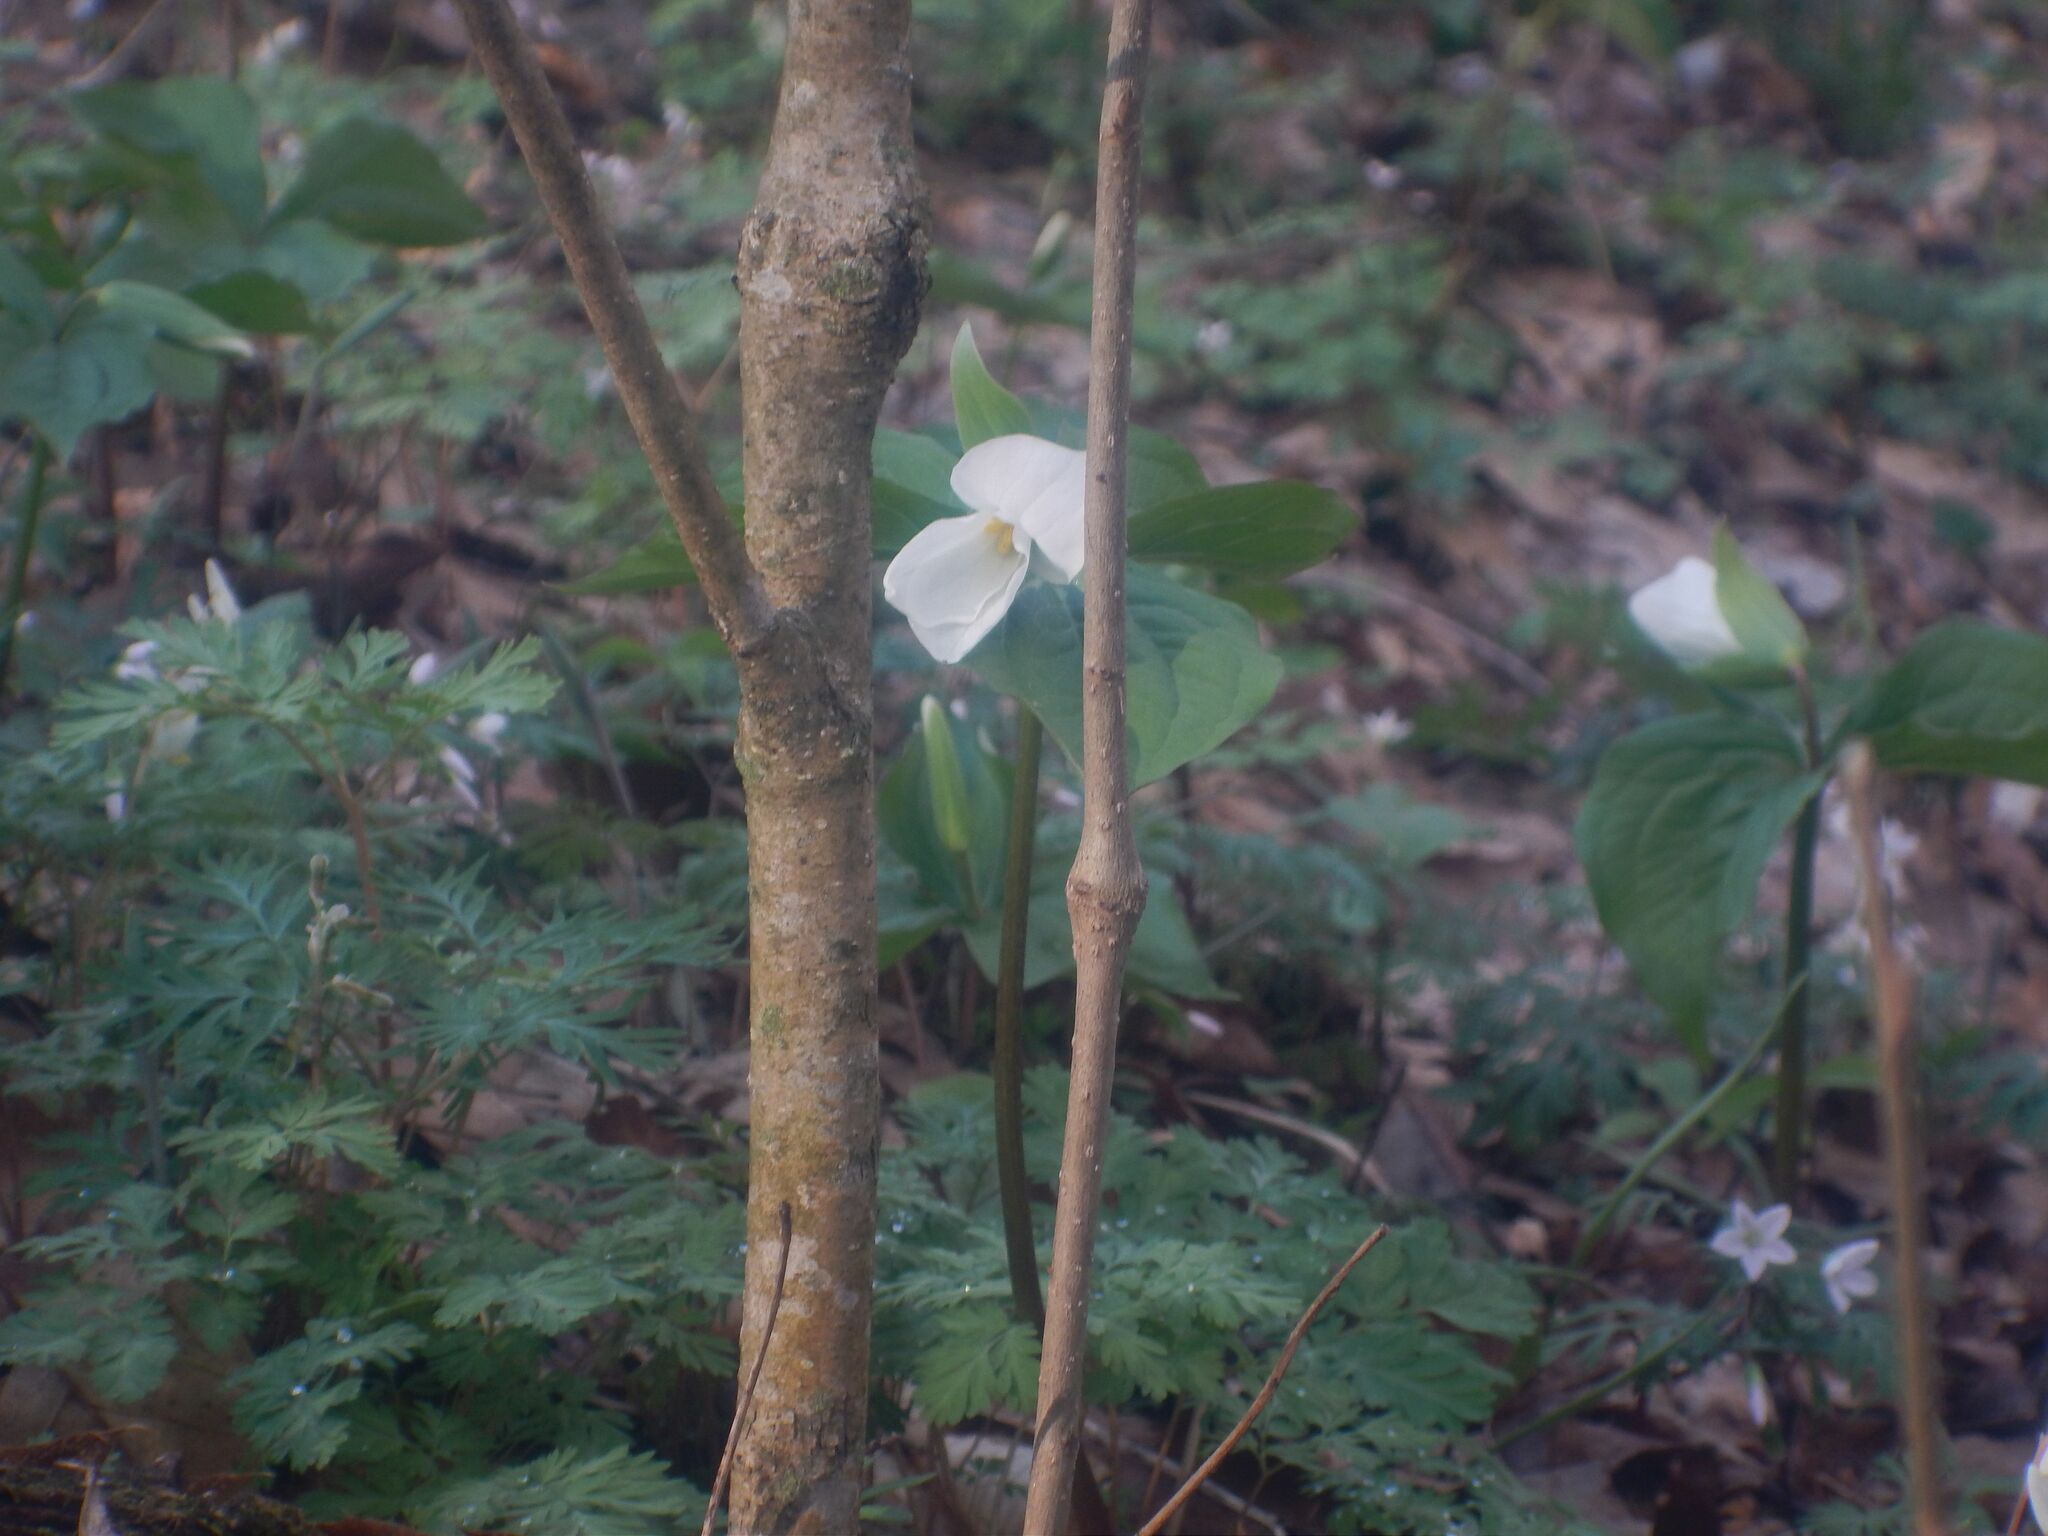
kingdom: Plantae
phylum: Tracheophyta
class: Liliopsida
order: Liliales
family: Melanthiaceae
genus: Trillium
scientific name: Trillium grandiflorum
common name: Great white trillium
